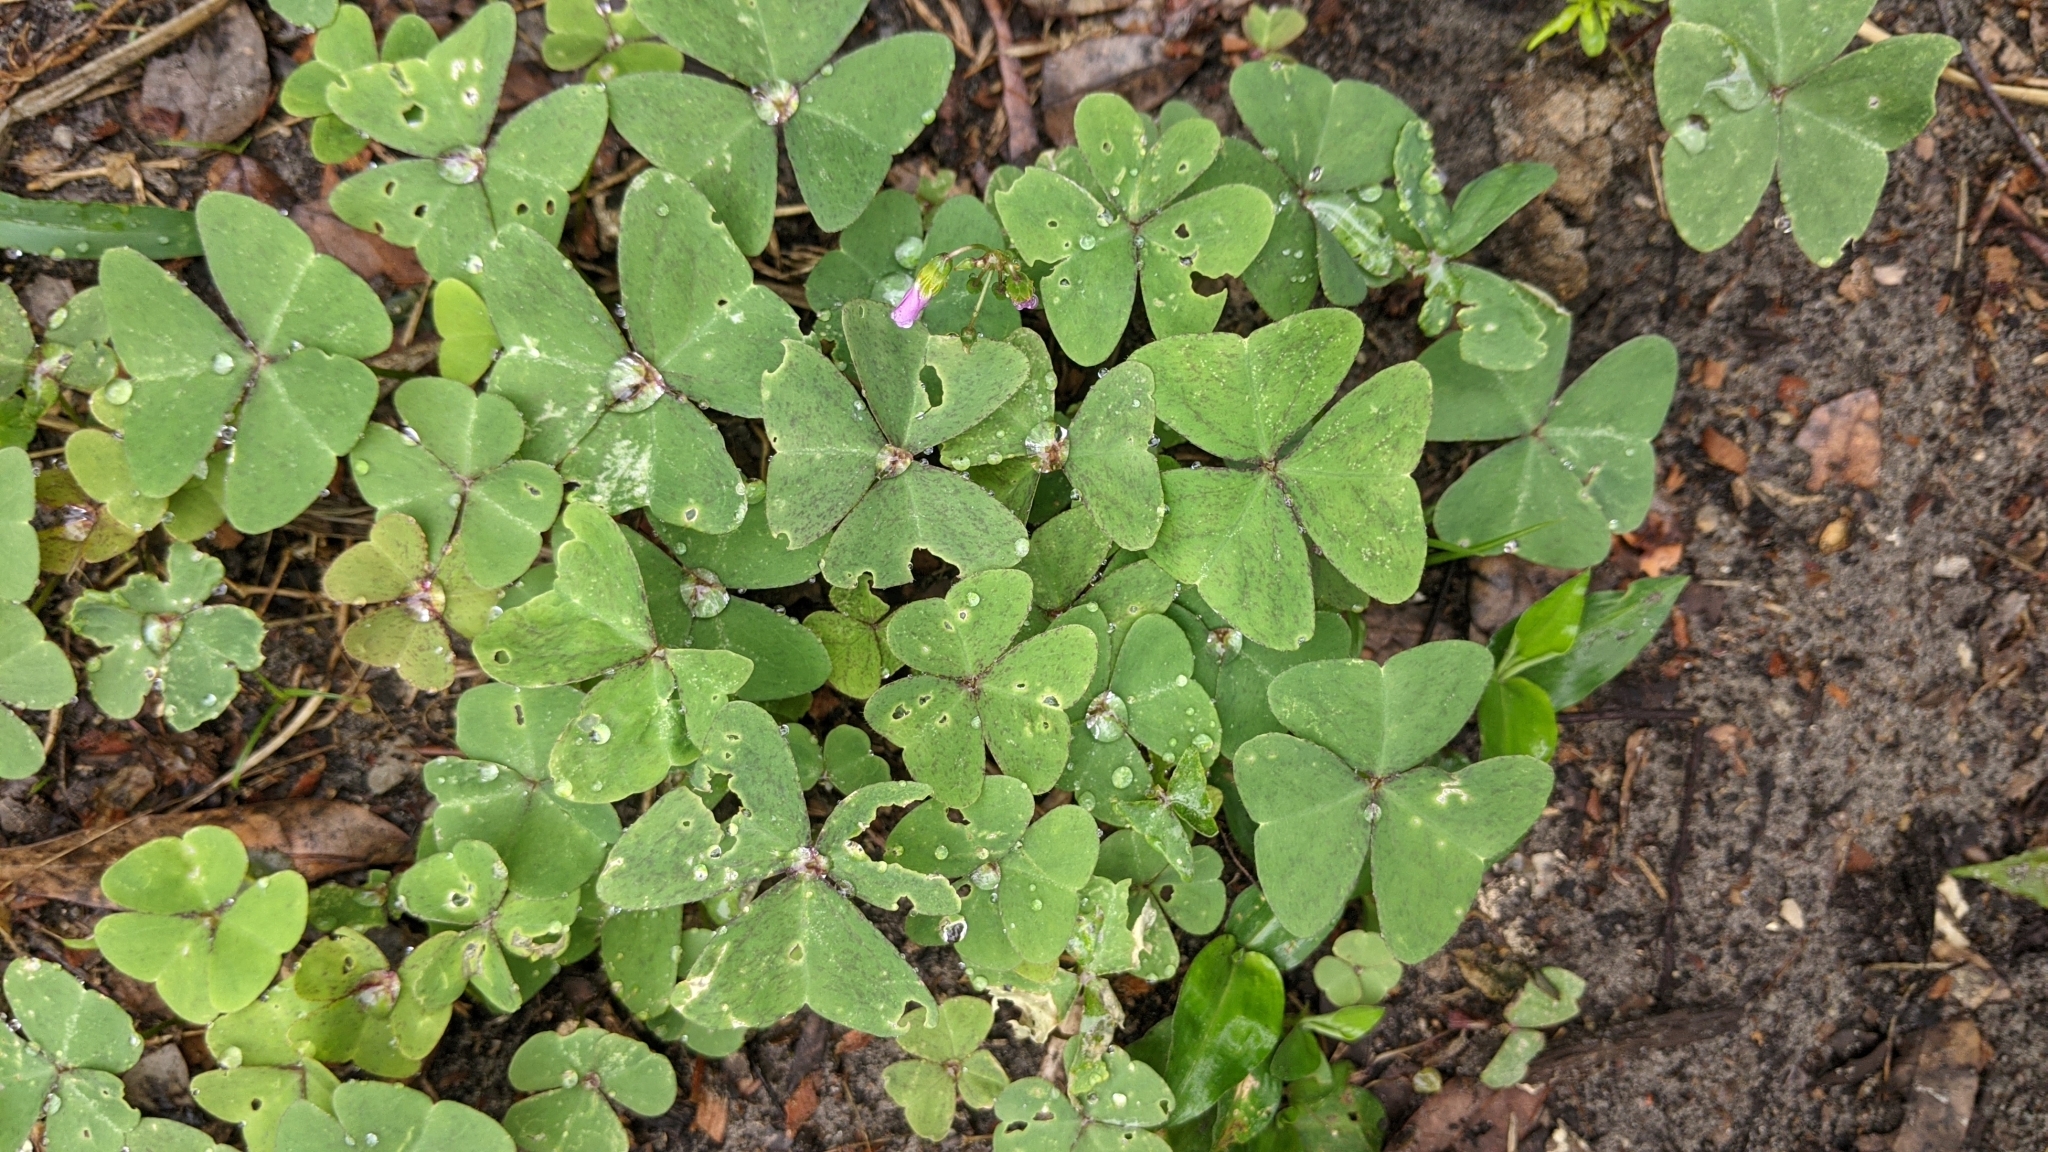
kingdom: Plantae
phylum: Tracheophyta
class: Magnoliopsida
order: Oxalidales
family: Oxalidaceae
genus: Oxalis
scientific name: Oxalis latifolia
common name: Garden pink-sorrel
